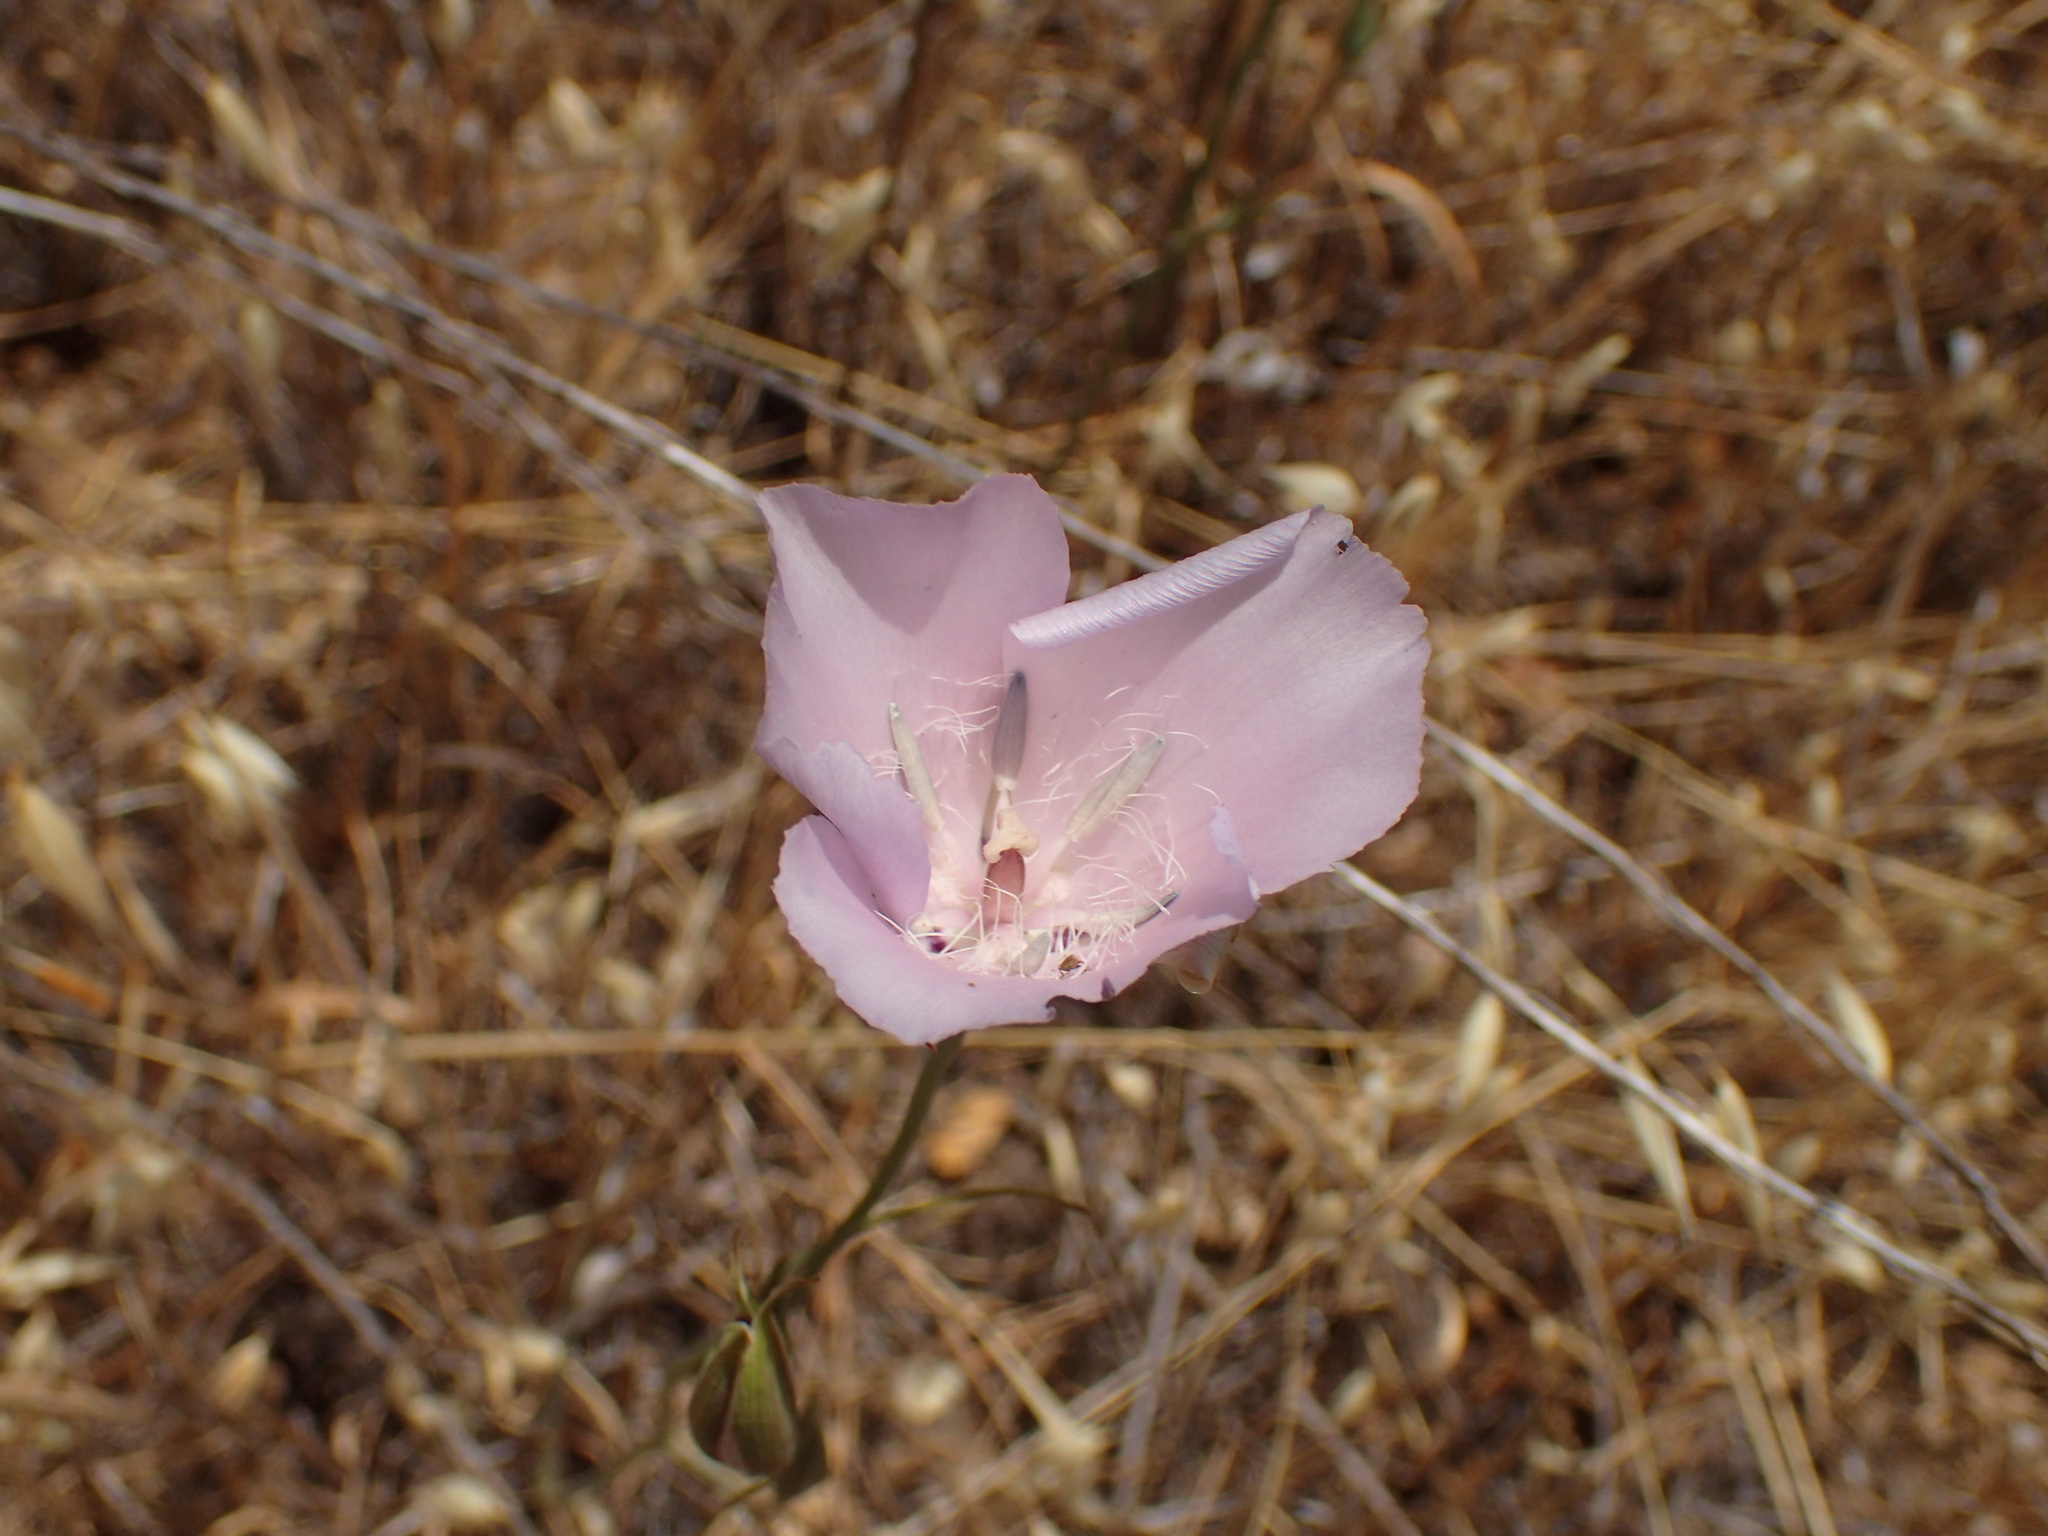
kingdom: Plantae
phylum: Tracheophyta
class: Liliopsida
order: Liliales
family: Liliaceae
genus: Calochortus
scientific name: Calochortus splendens
